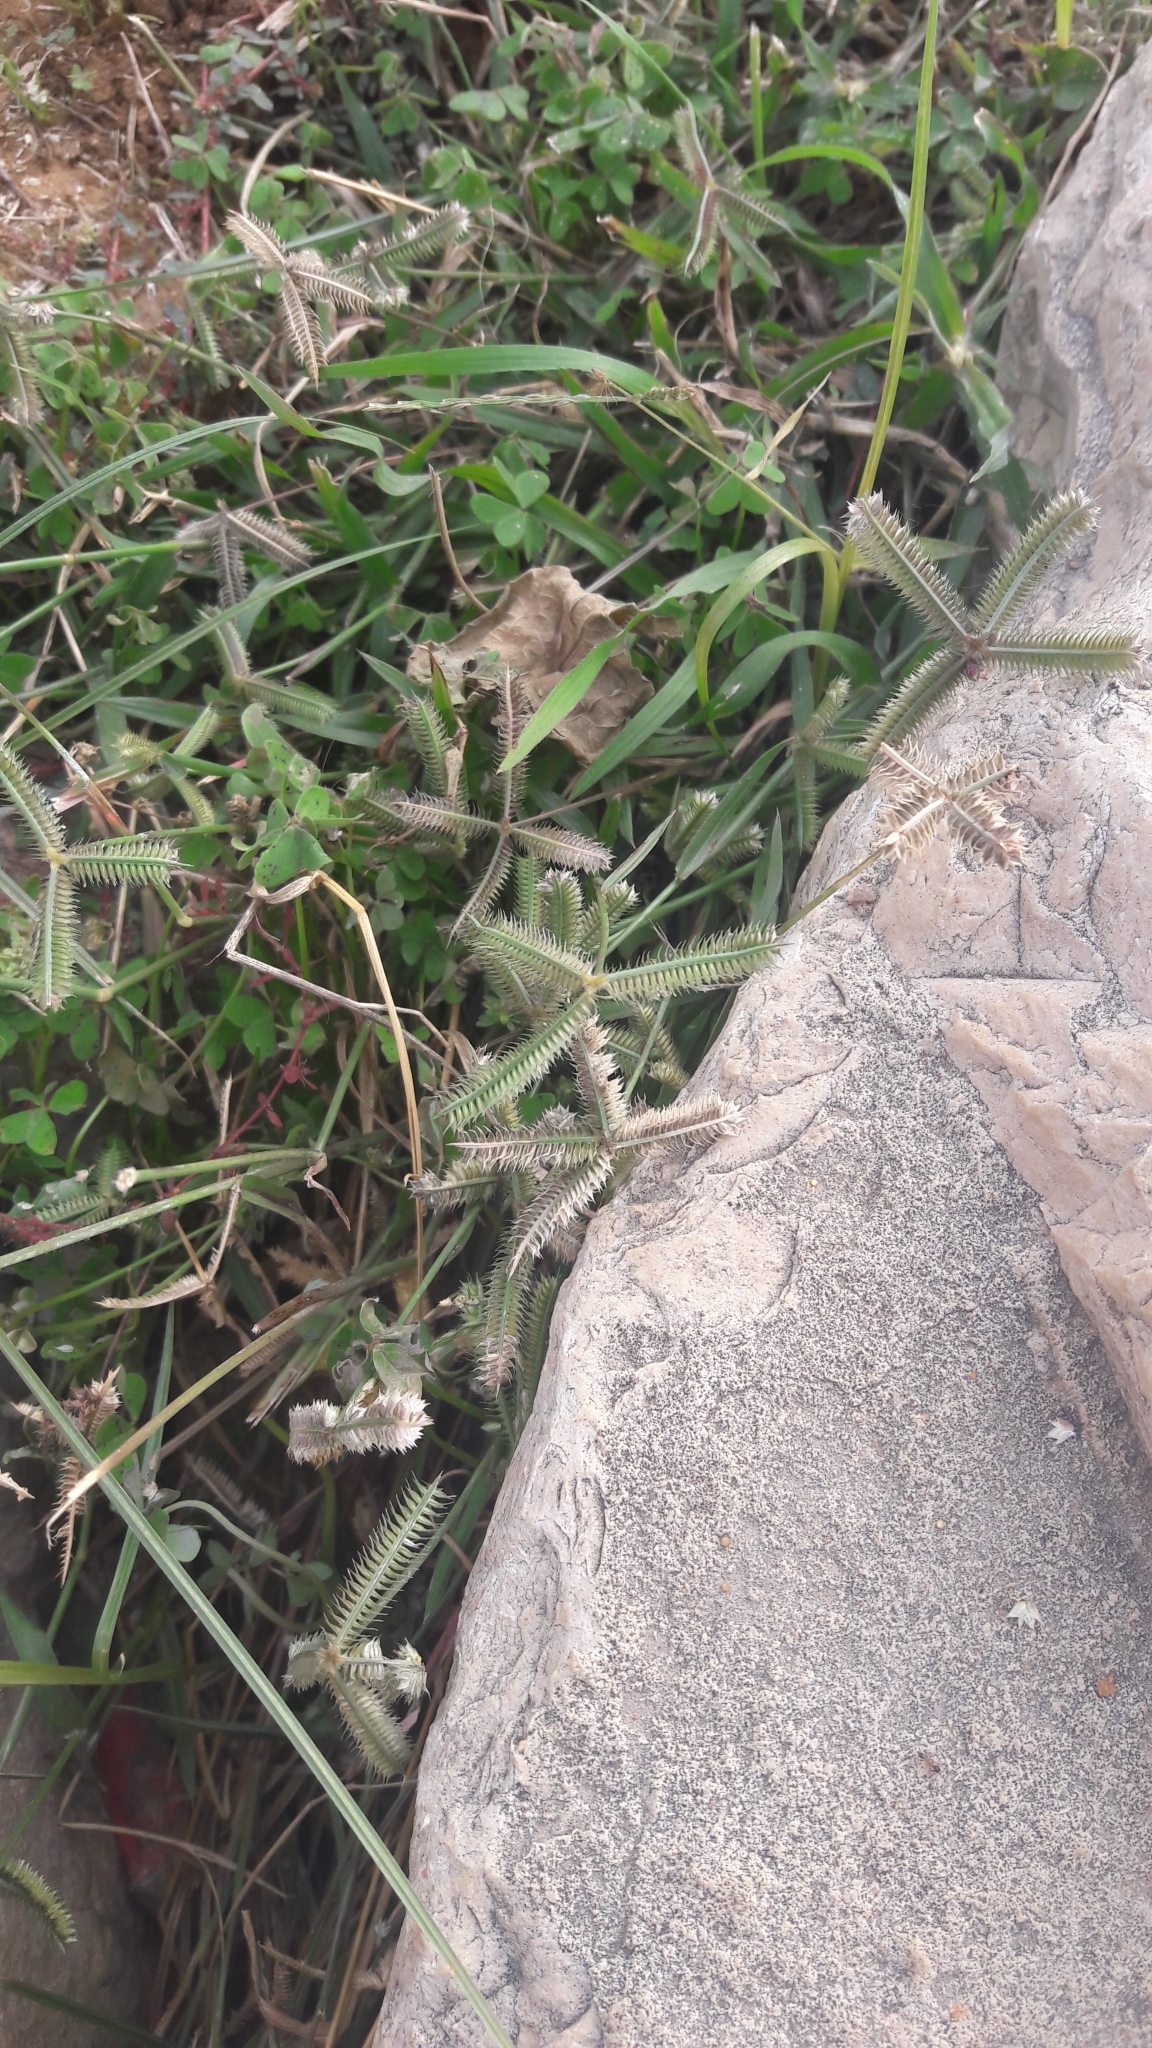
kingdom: Plantae
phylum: Tracheophyta
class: Liliopsida
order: Poales
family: Poaceae
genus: Dactyloctenium
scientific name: Dactyloctenium aegyptium
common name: Egyptian grass
